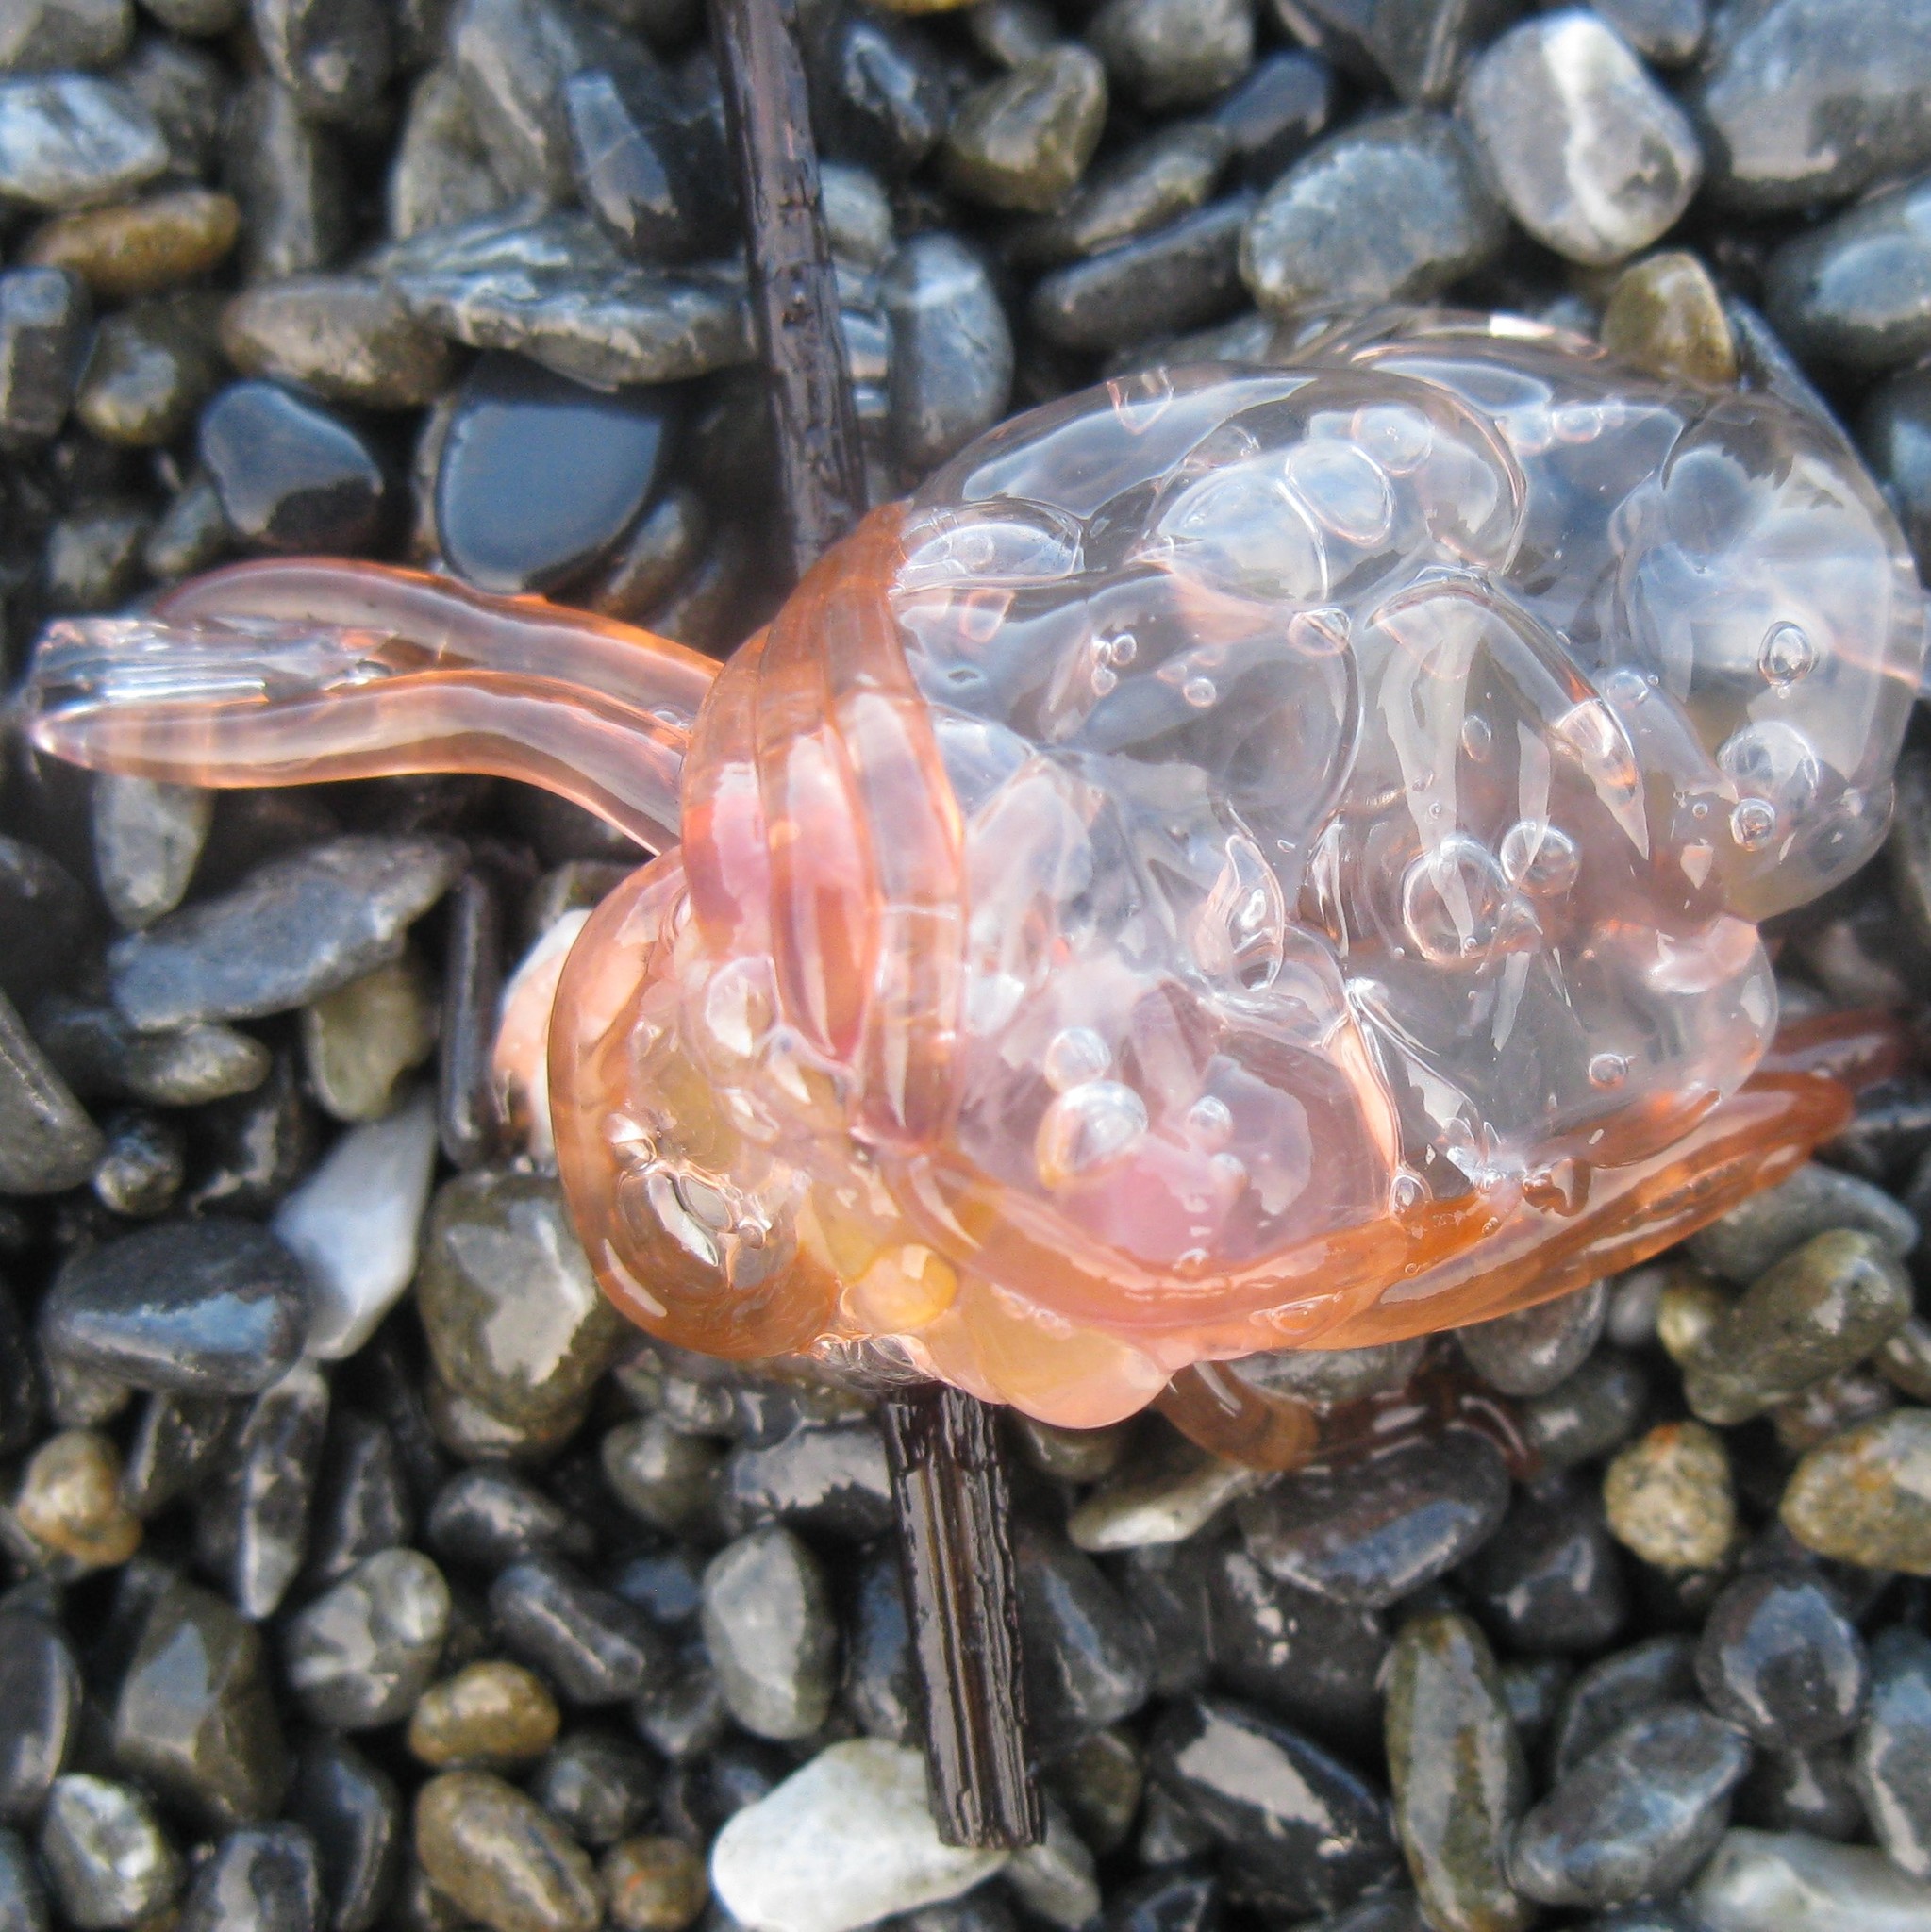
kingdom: Animalia
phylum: Cnidaria
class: Hydrozoa
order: Siphonophorae
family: Physophoridae
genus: Physophora
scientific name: Physophora hydrostatica
